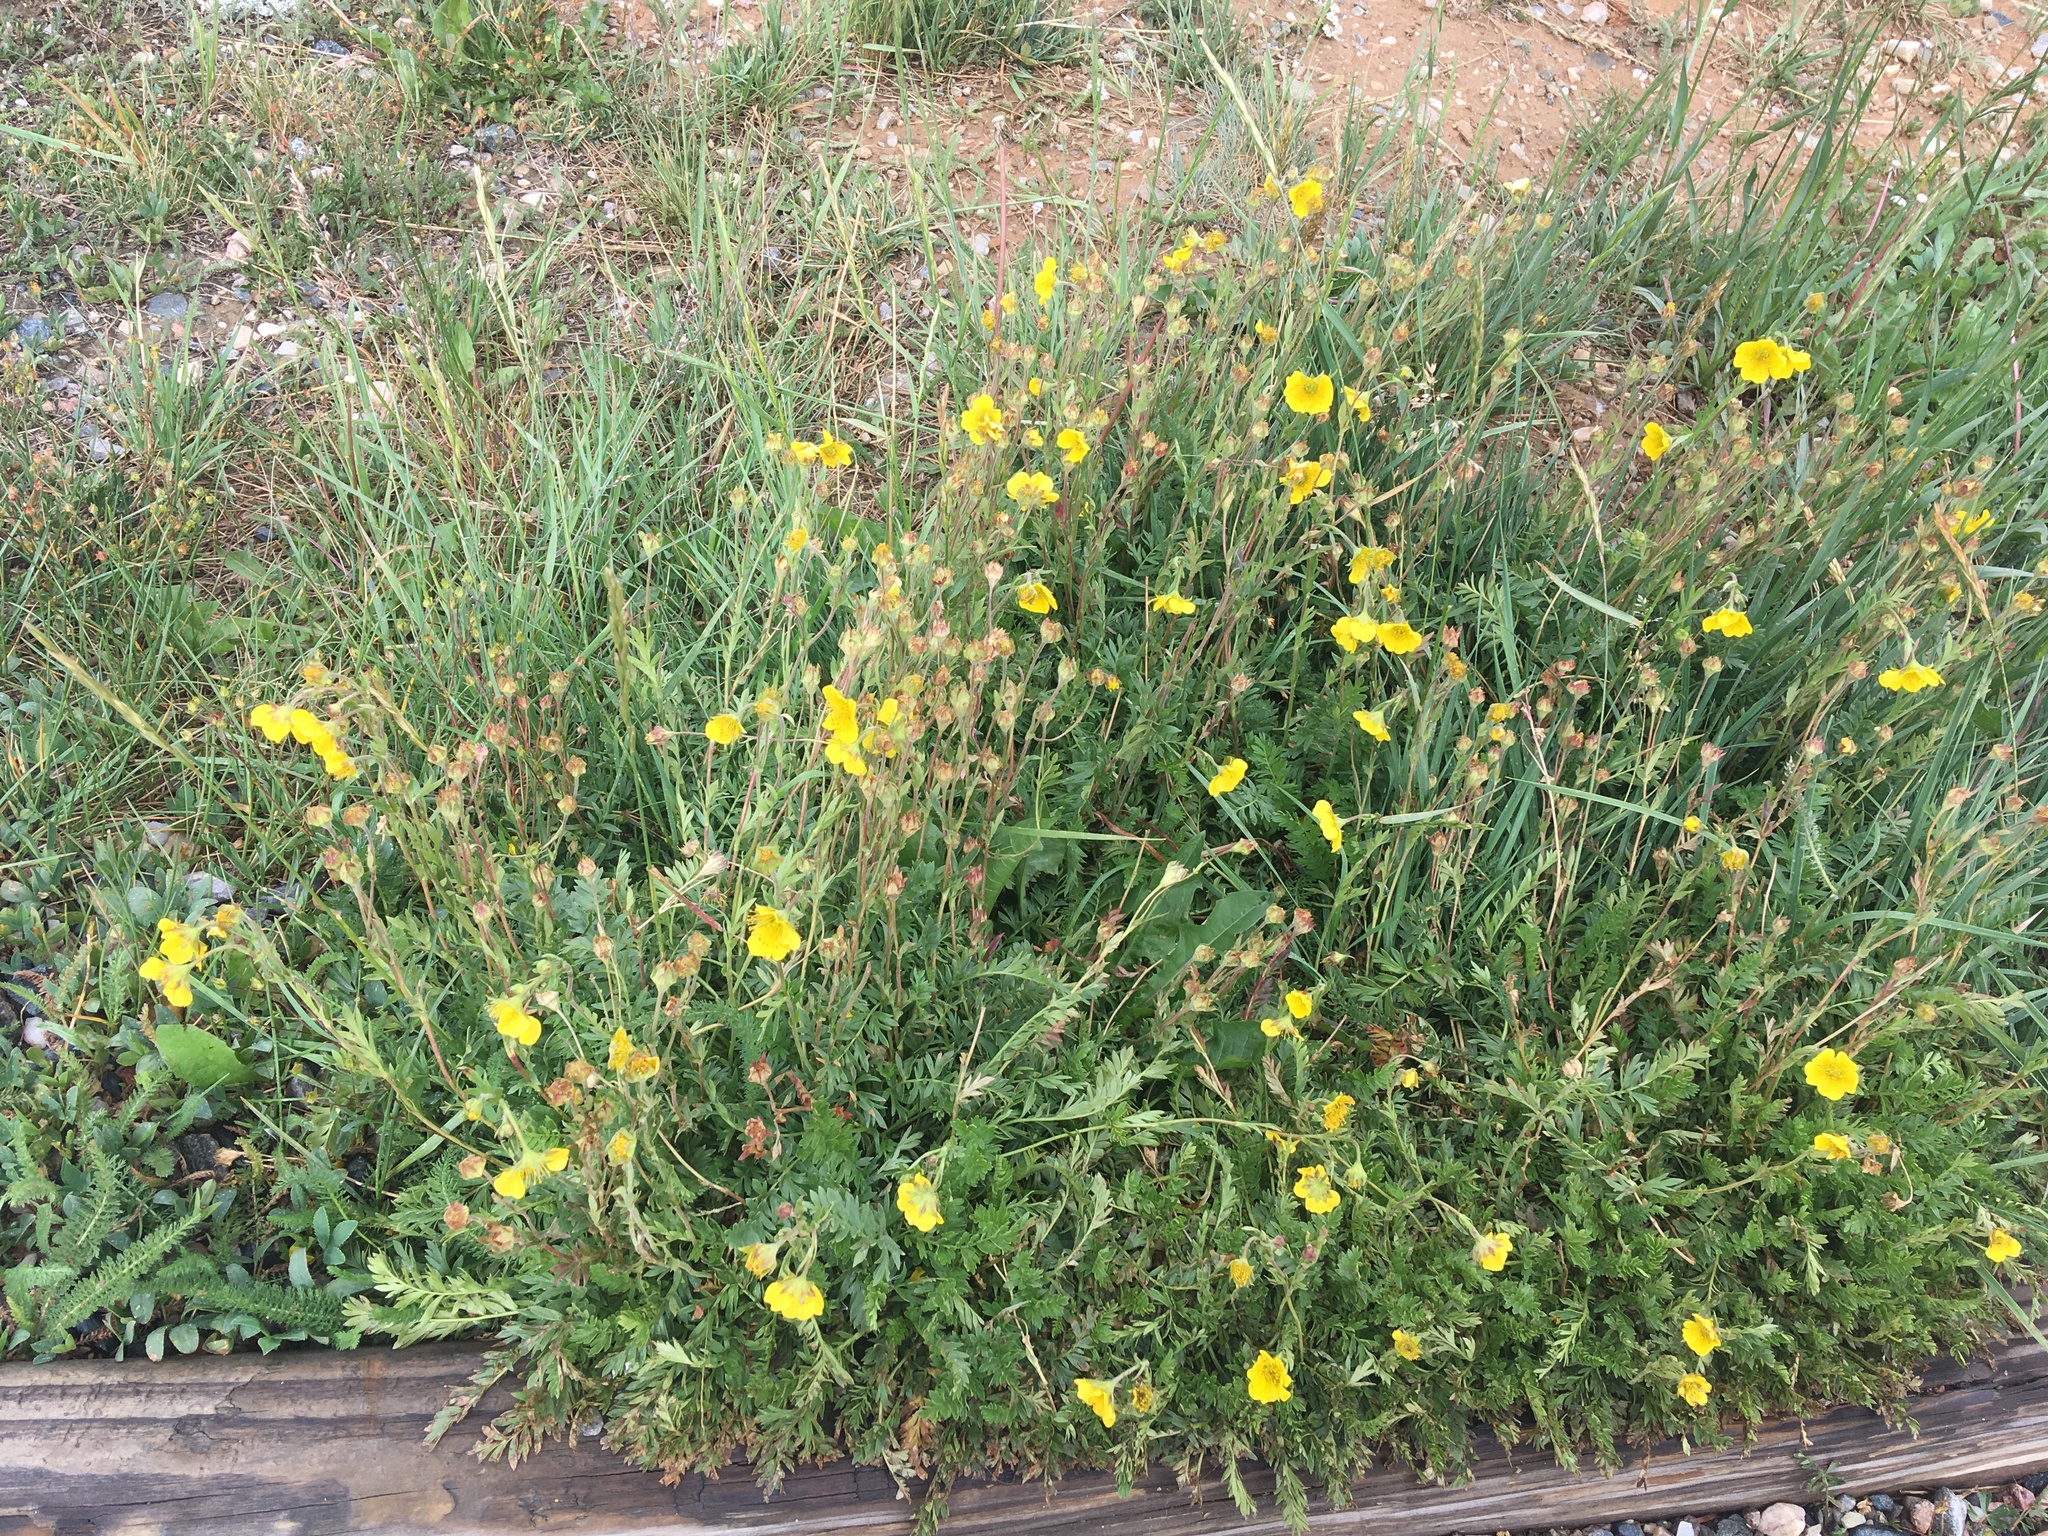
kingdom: Plantae
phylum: Tracheophyta
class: Magnoliopsida
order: Rosales
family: Rosaceae
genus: Geum
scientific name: Geum rossii
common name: Alpine avens
